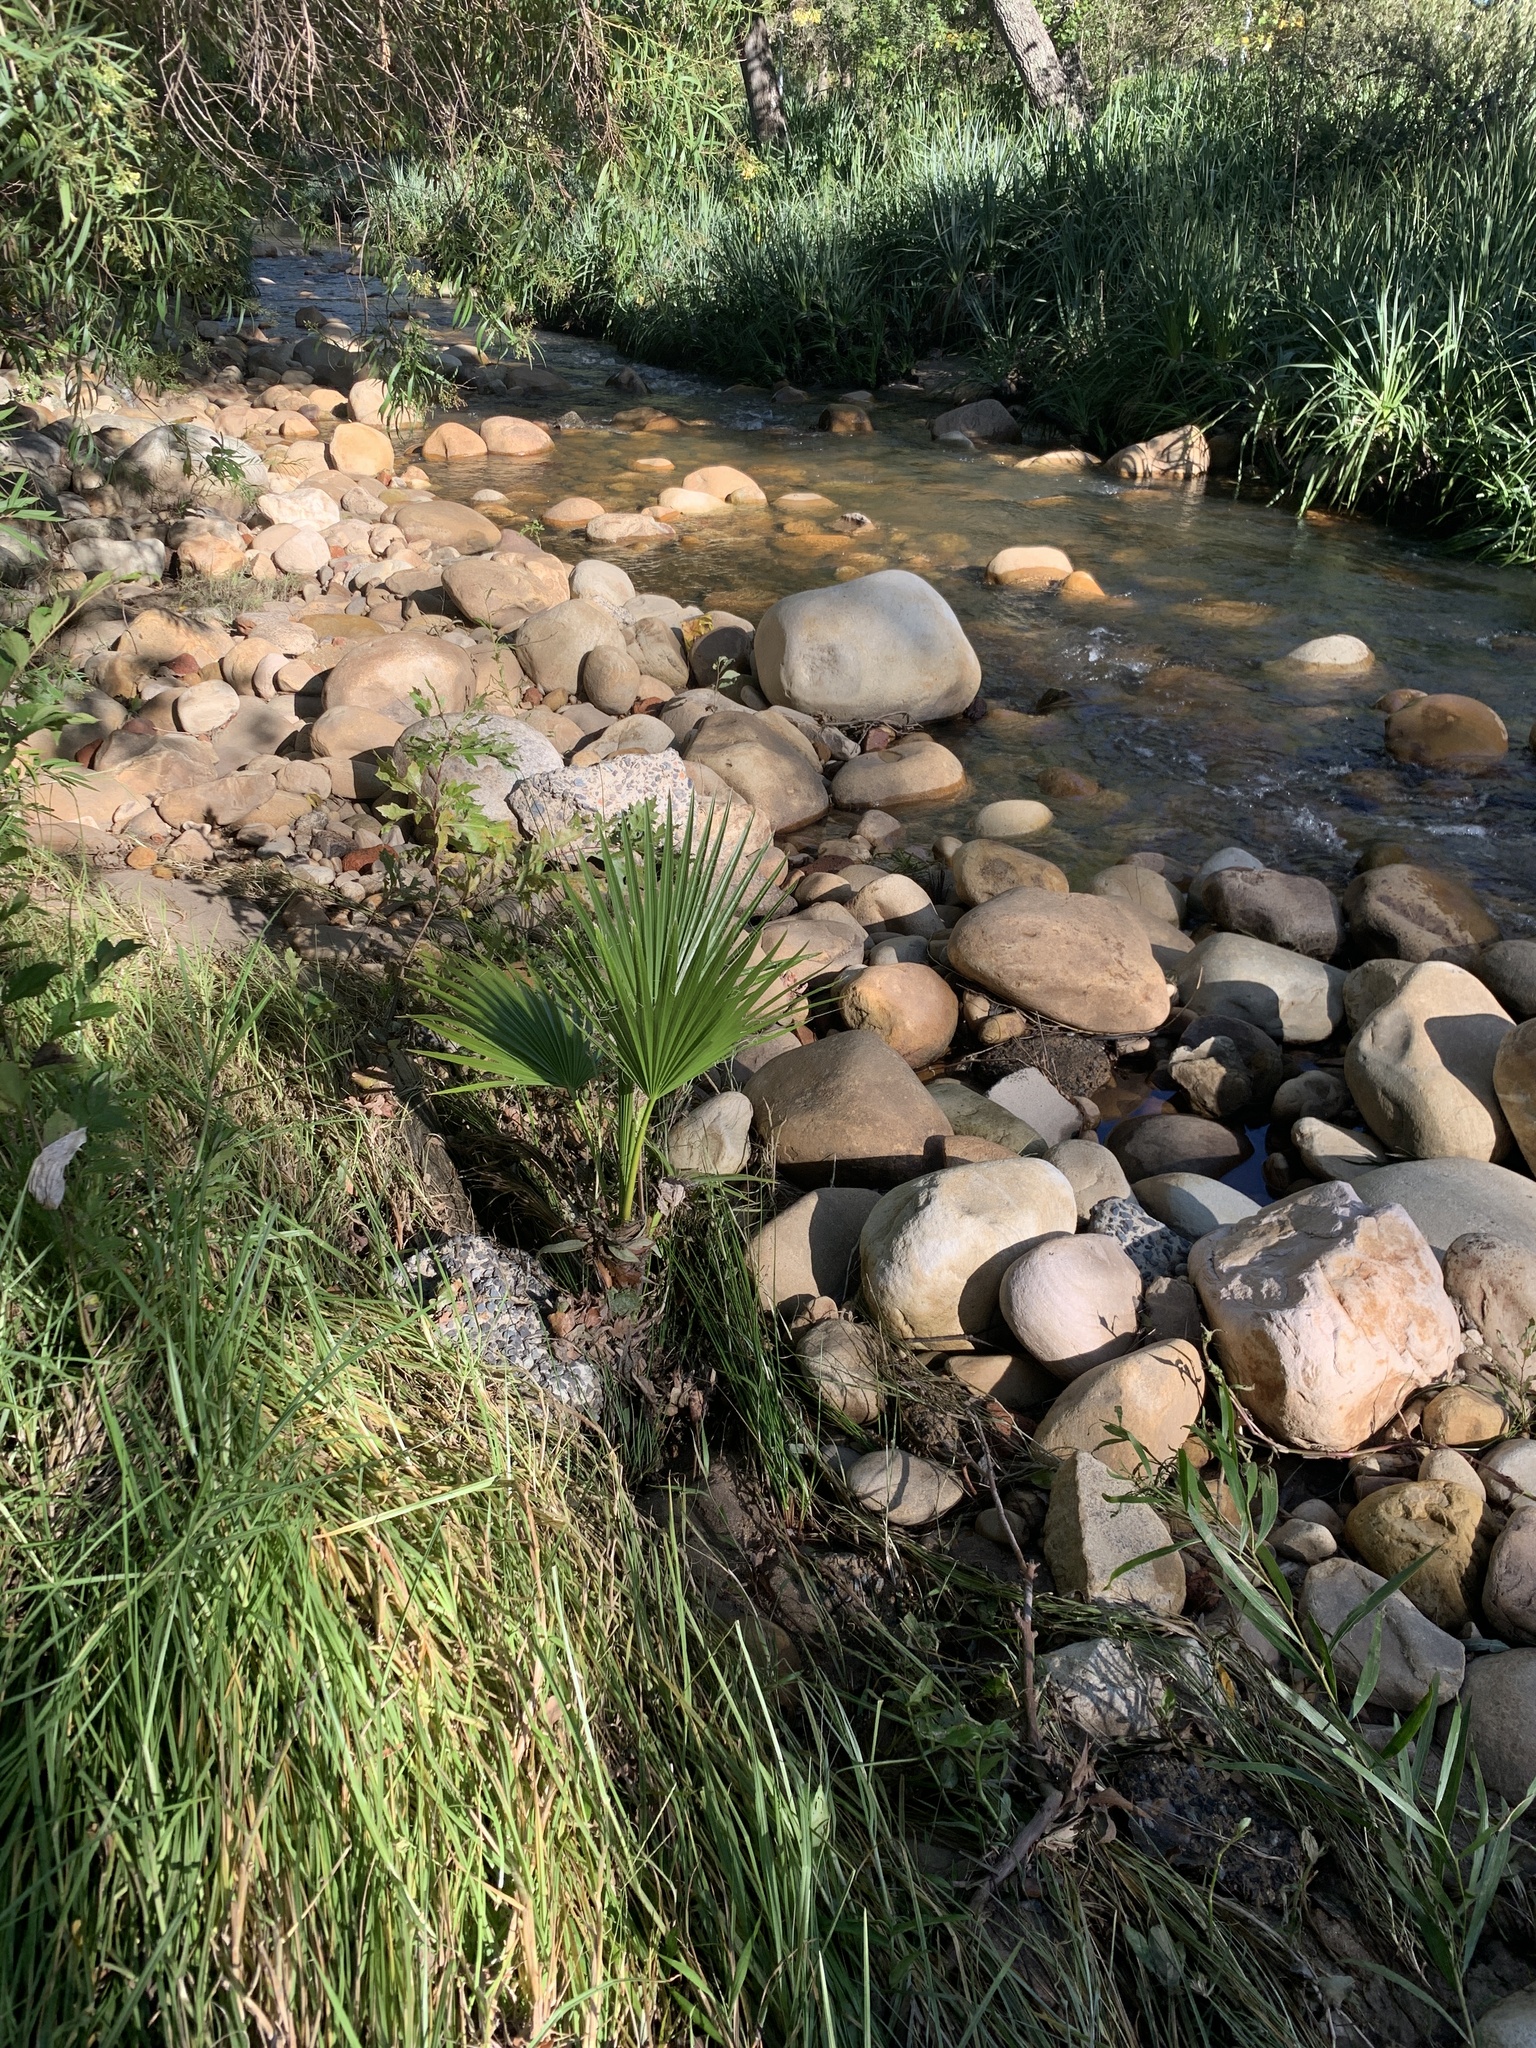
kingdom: Plantae
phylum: Tracheophyta
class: Liliopsida
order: Arecales
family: Arecaceae
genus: Washingtonia
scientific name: Washingtonia robusta
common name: Mexican fan palm
